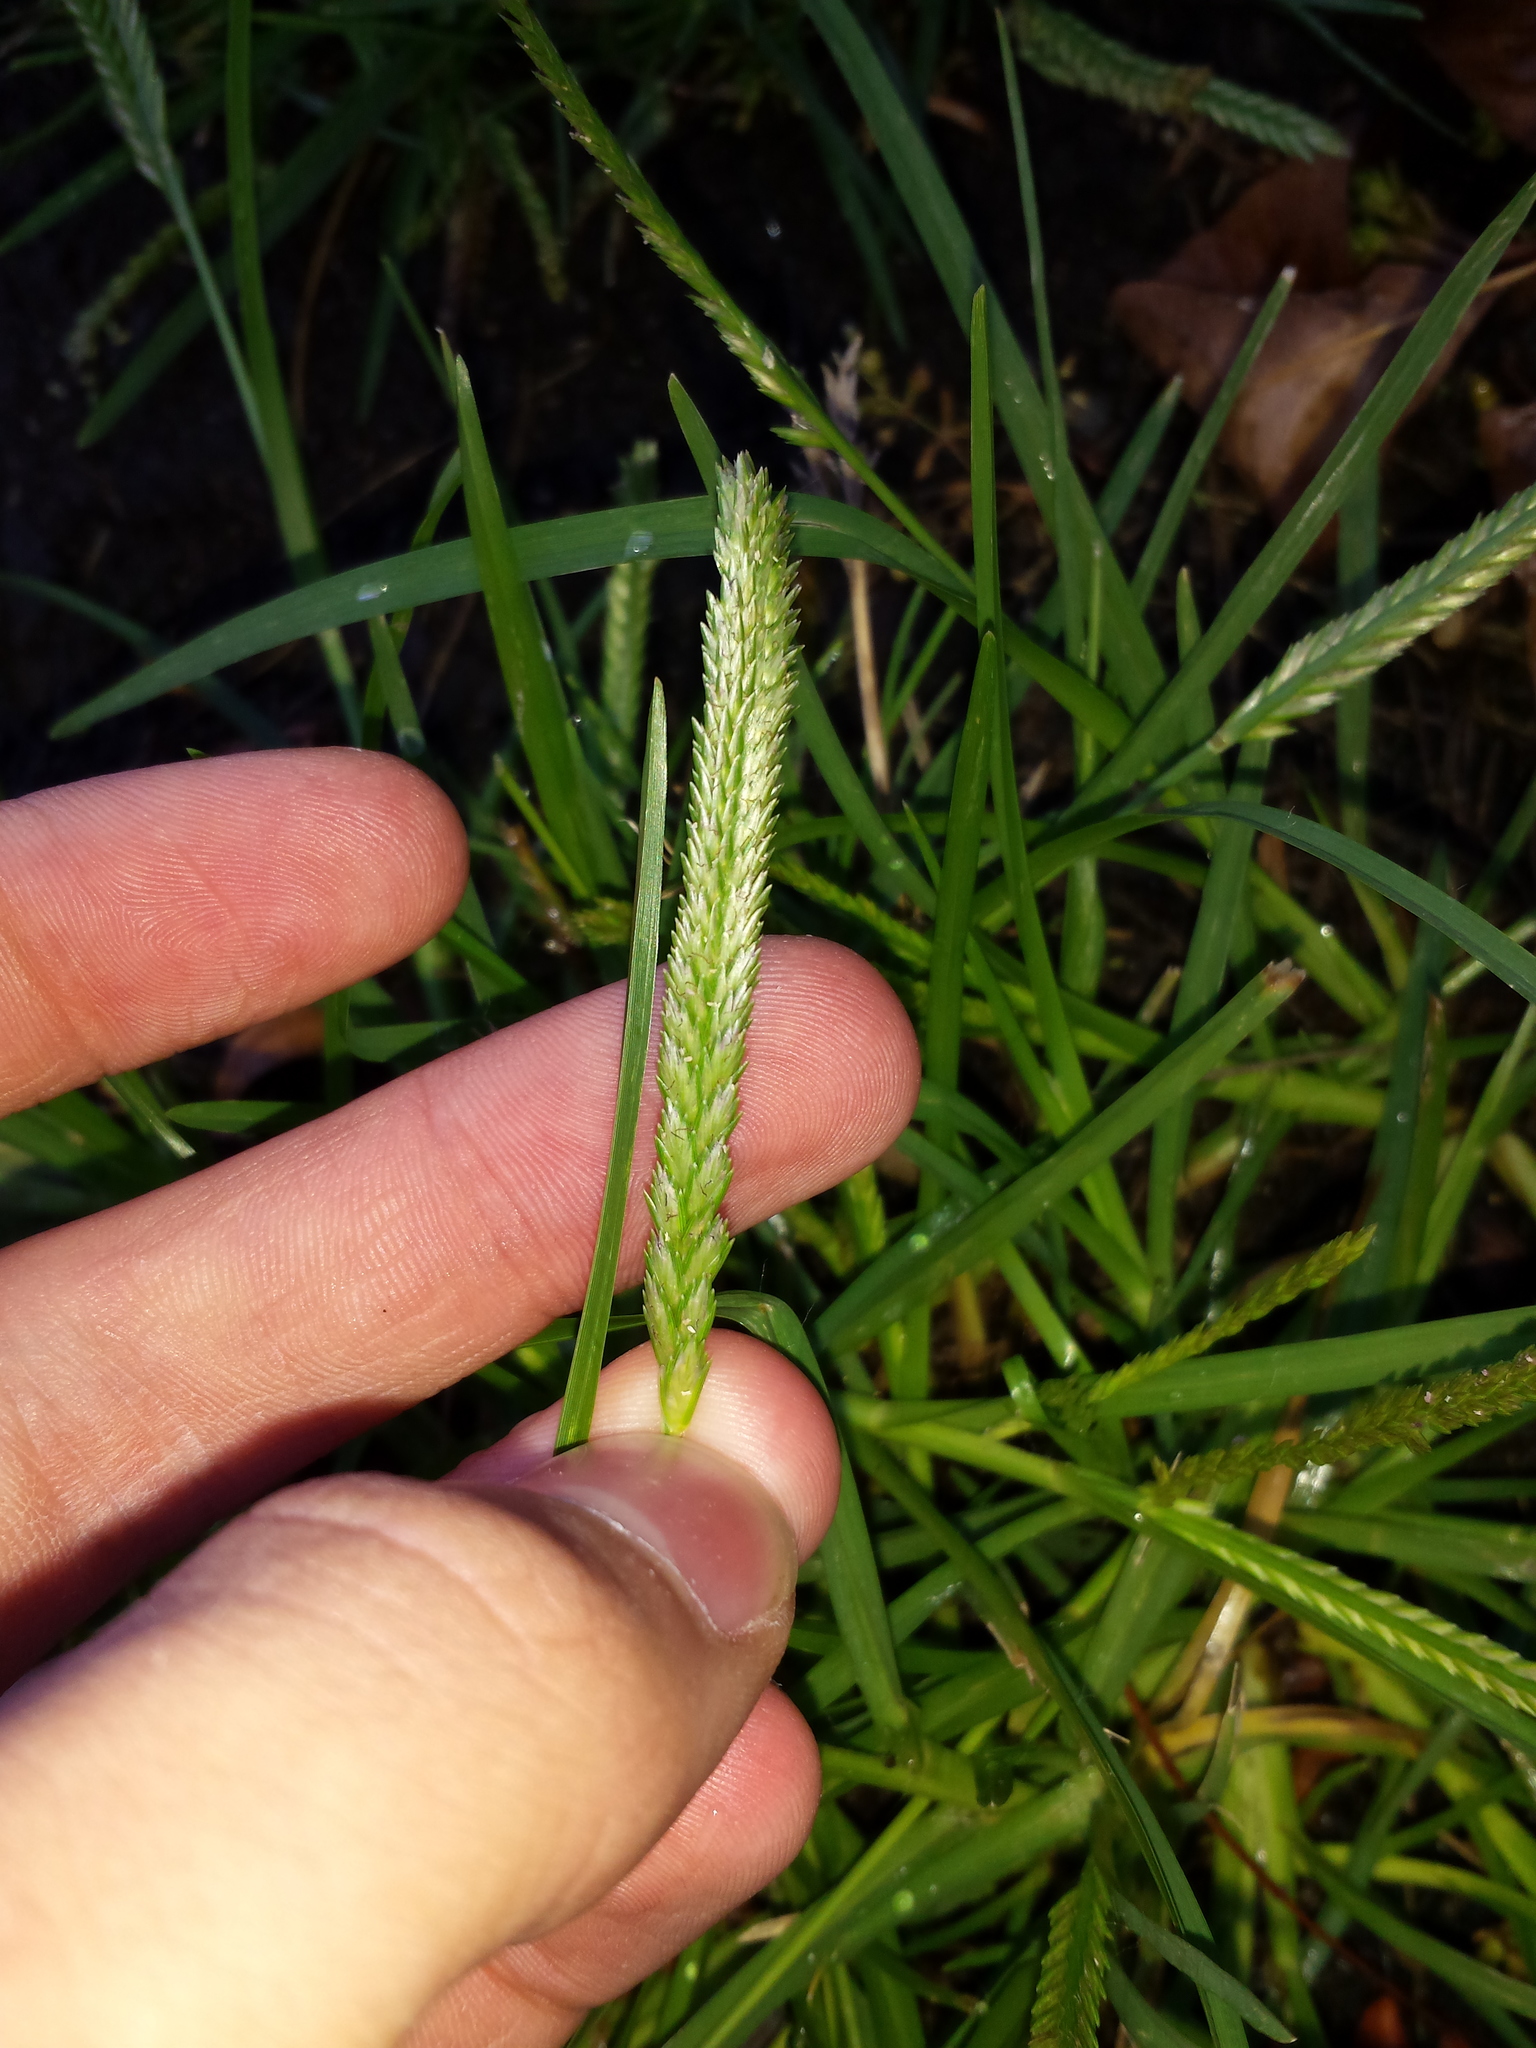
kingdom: Plantae
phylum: Tracheophyta
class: Liliopsida
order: Poales
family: Poaceae
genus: Eleusine
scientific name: Eleusine indica
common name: Yard-grass
